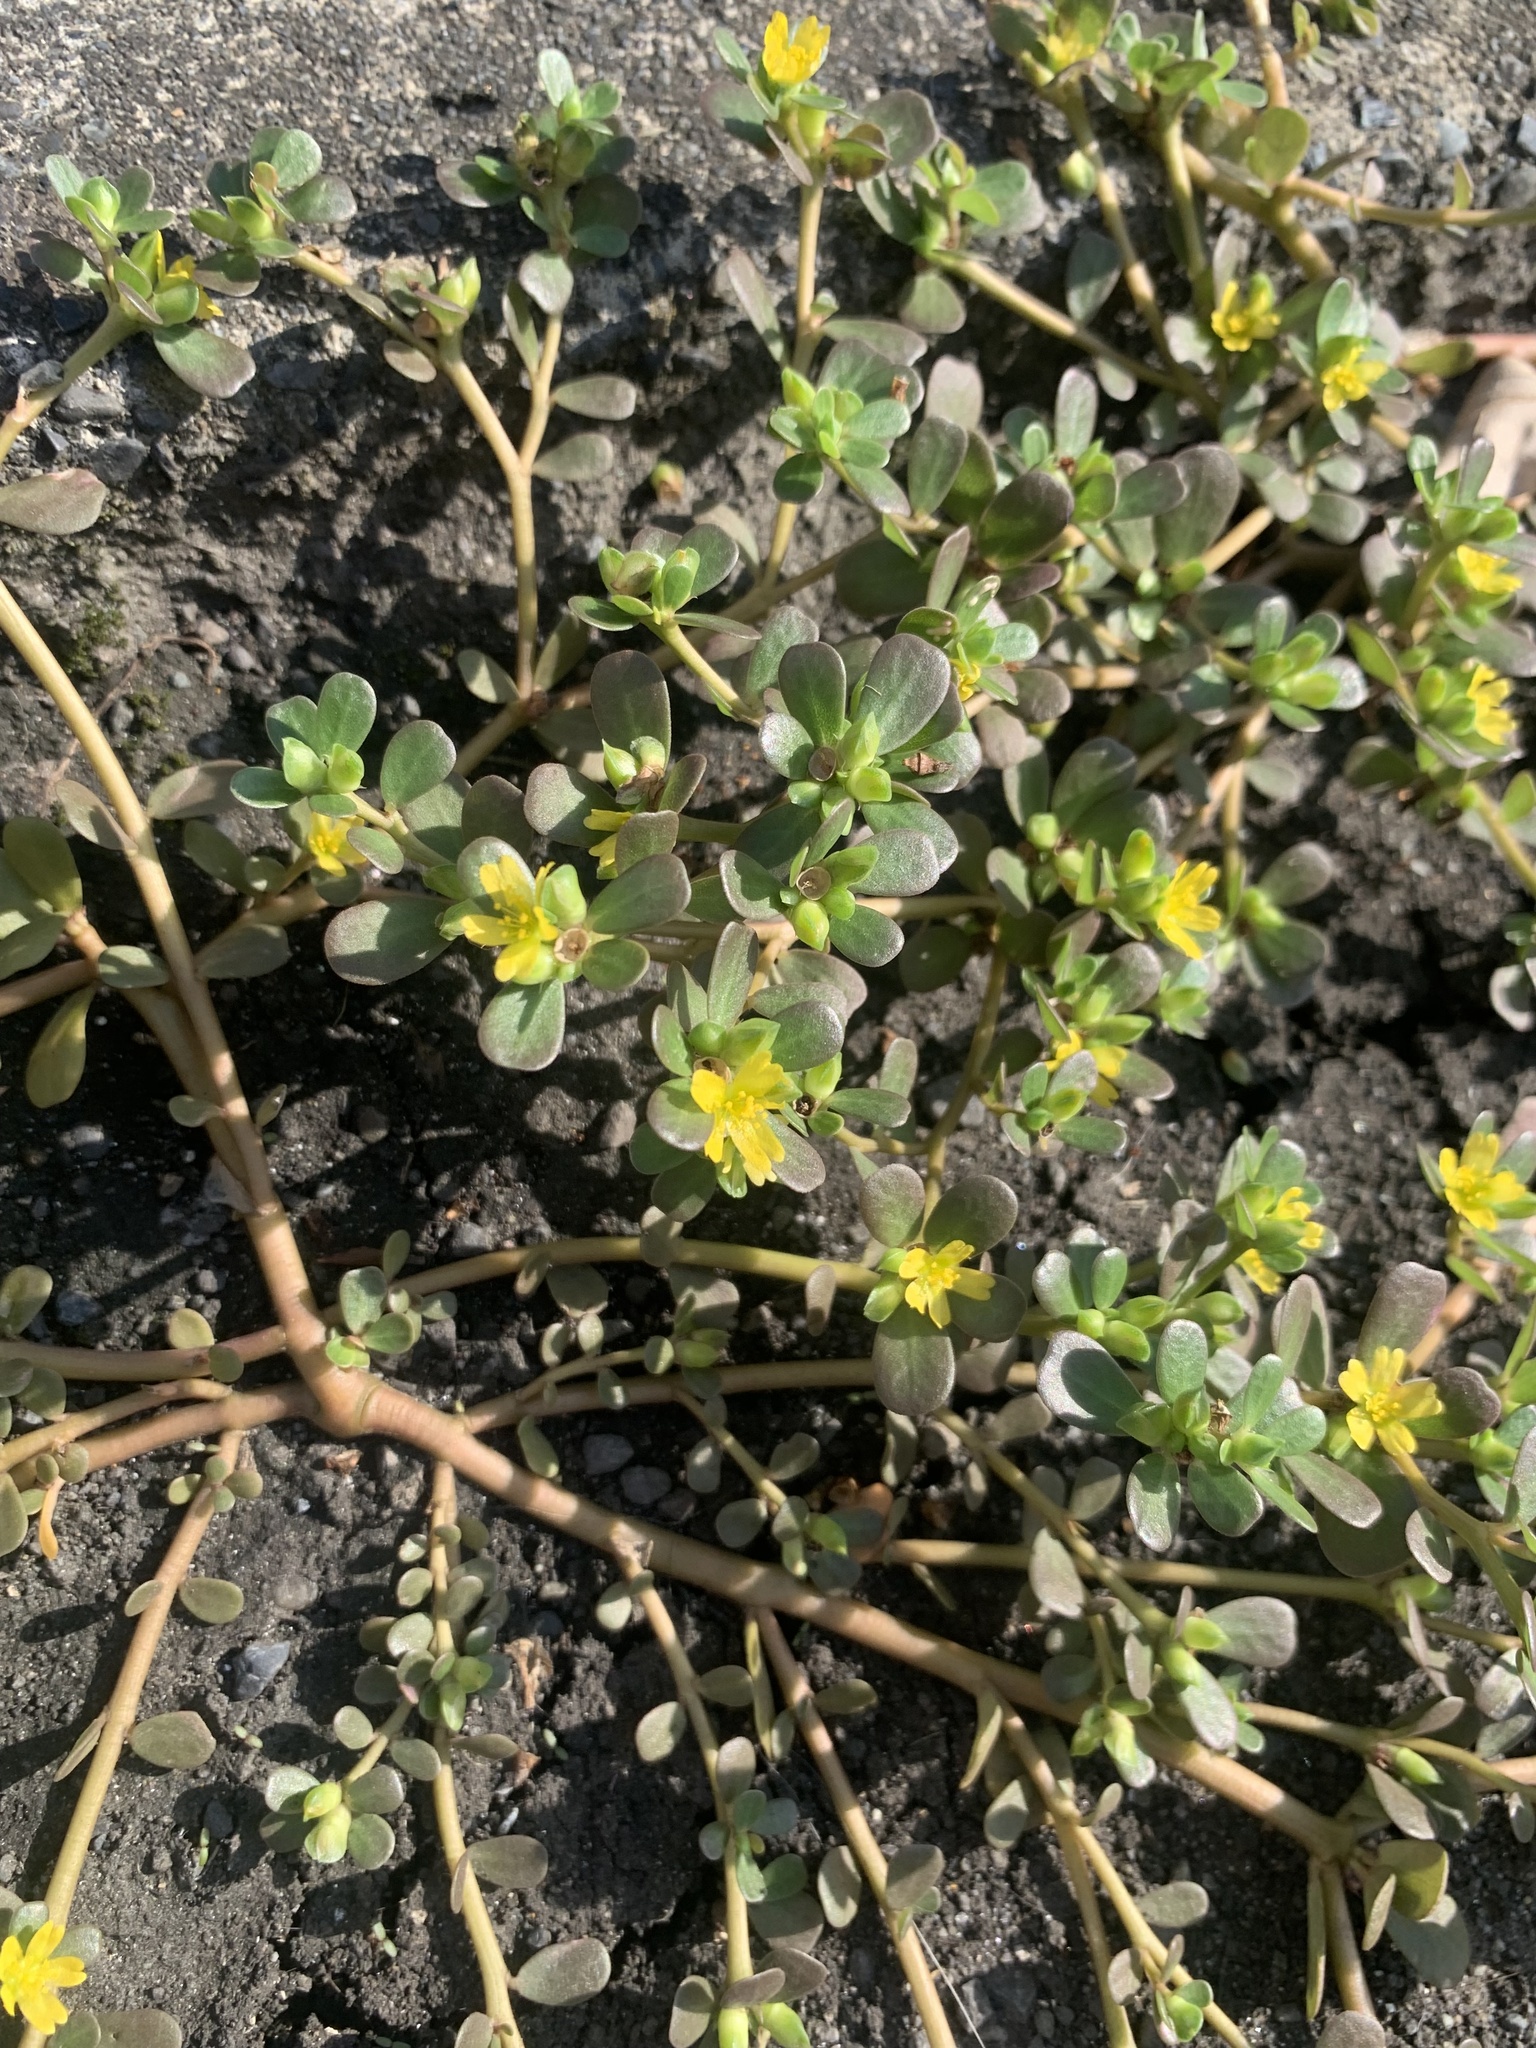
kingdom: Plantae
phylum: Tracheophyta
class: Magnoliopsida
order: Caryophyllales
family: Portulacaceae
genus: Portulaca
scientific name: Portulaca oleracea
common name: Common purslane
